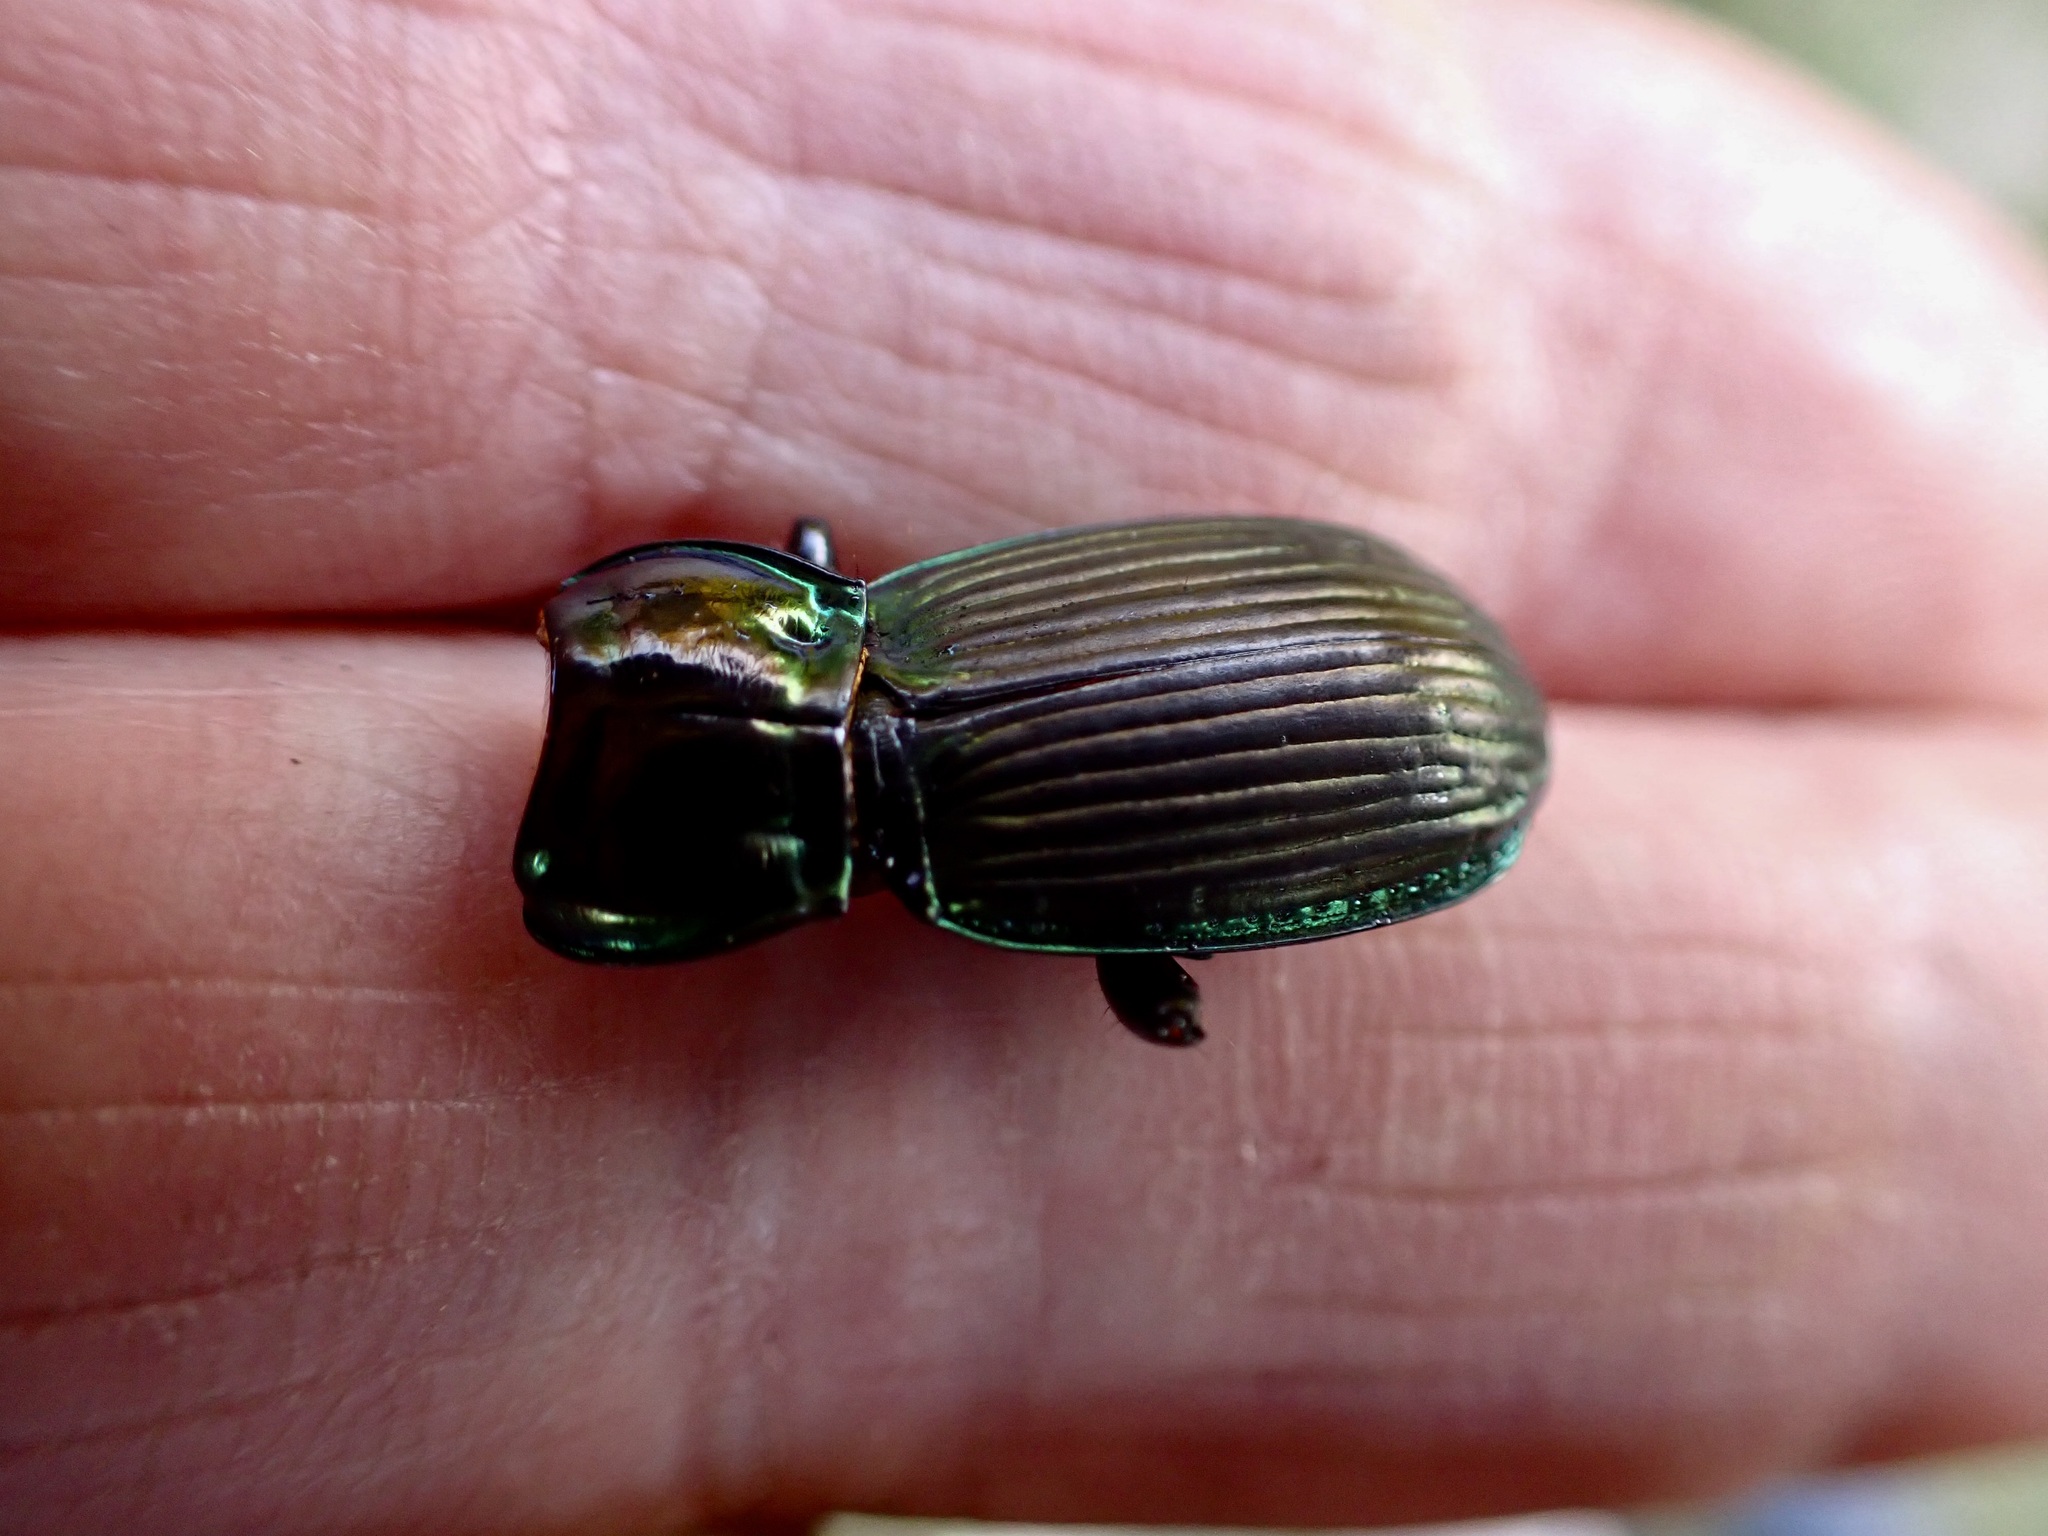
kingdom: Animalia
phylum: Arthropoda
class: Insecta
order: Coleoptera
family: Carabidae
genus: Megadromus
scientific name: Megadromus antarcticus
